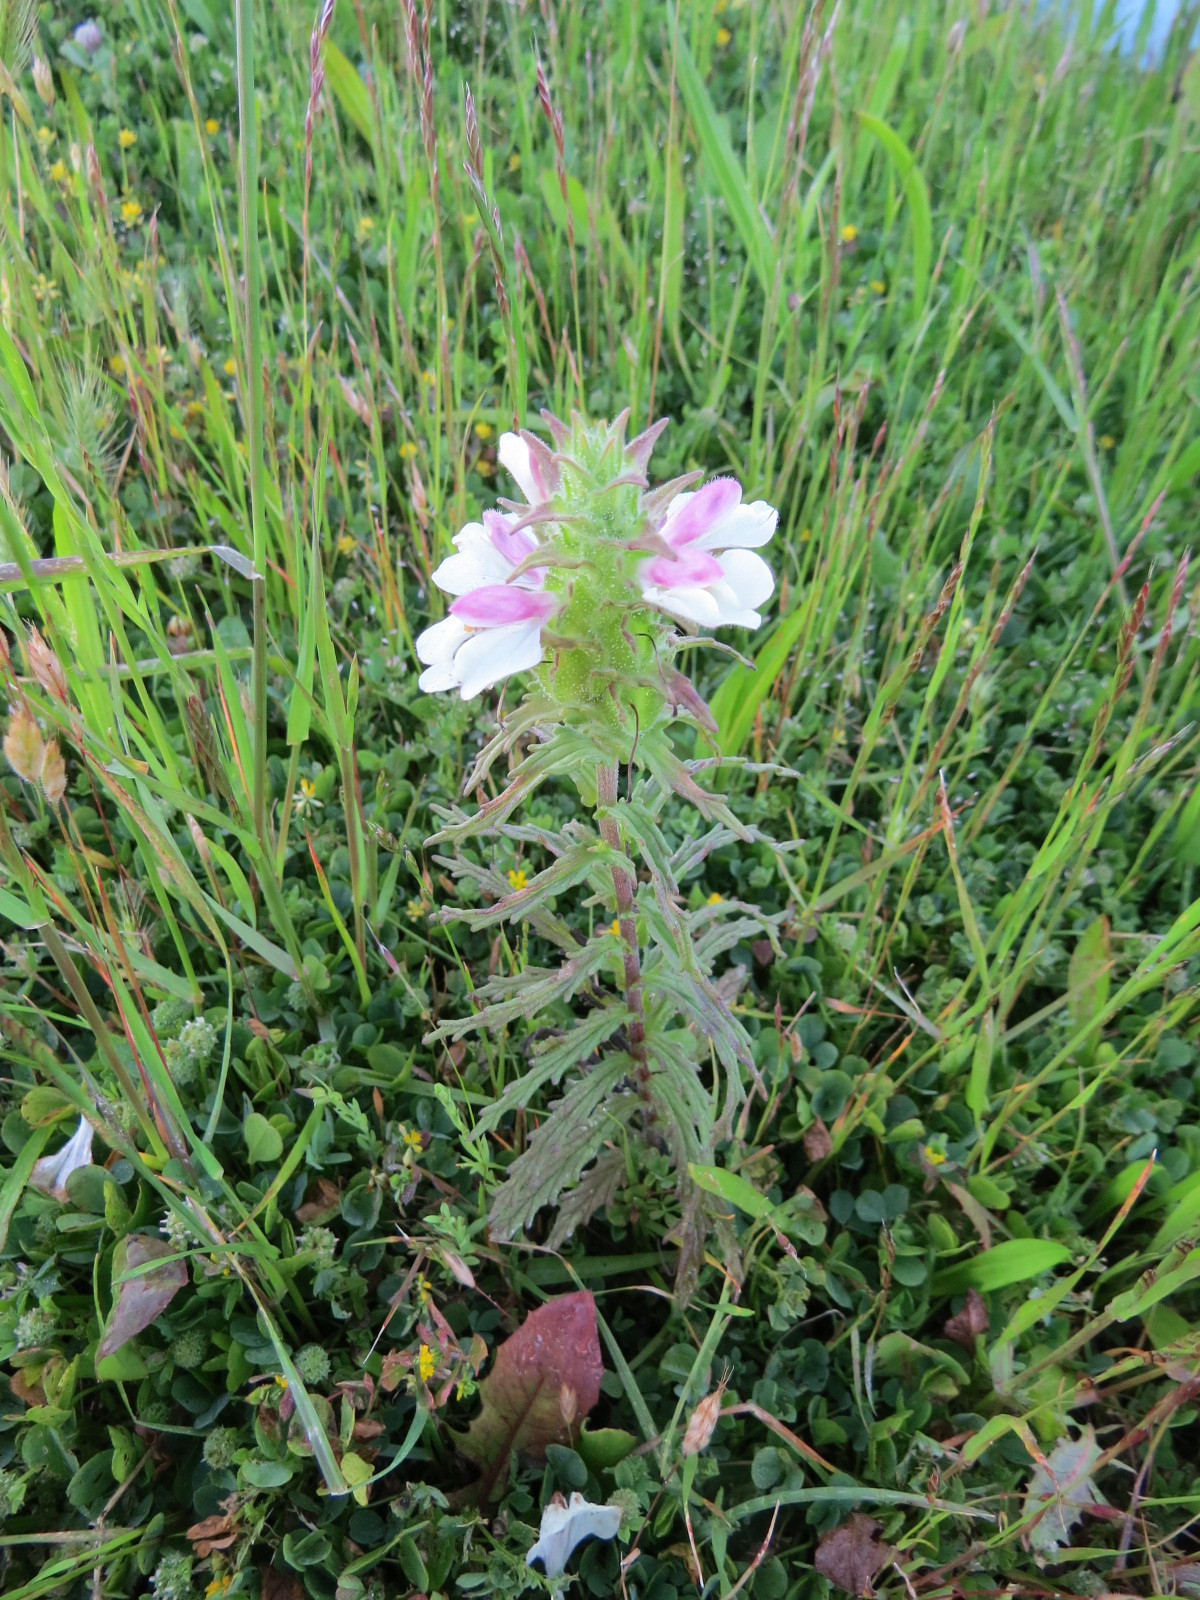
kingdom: Plantae
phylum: Tracheophyta
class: Magnoliopsida
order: Lamiales
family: Orobanchaceae
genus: Bellardia
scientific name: Bellardia trixago
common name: Mediterranean lineseed
